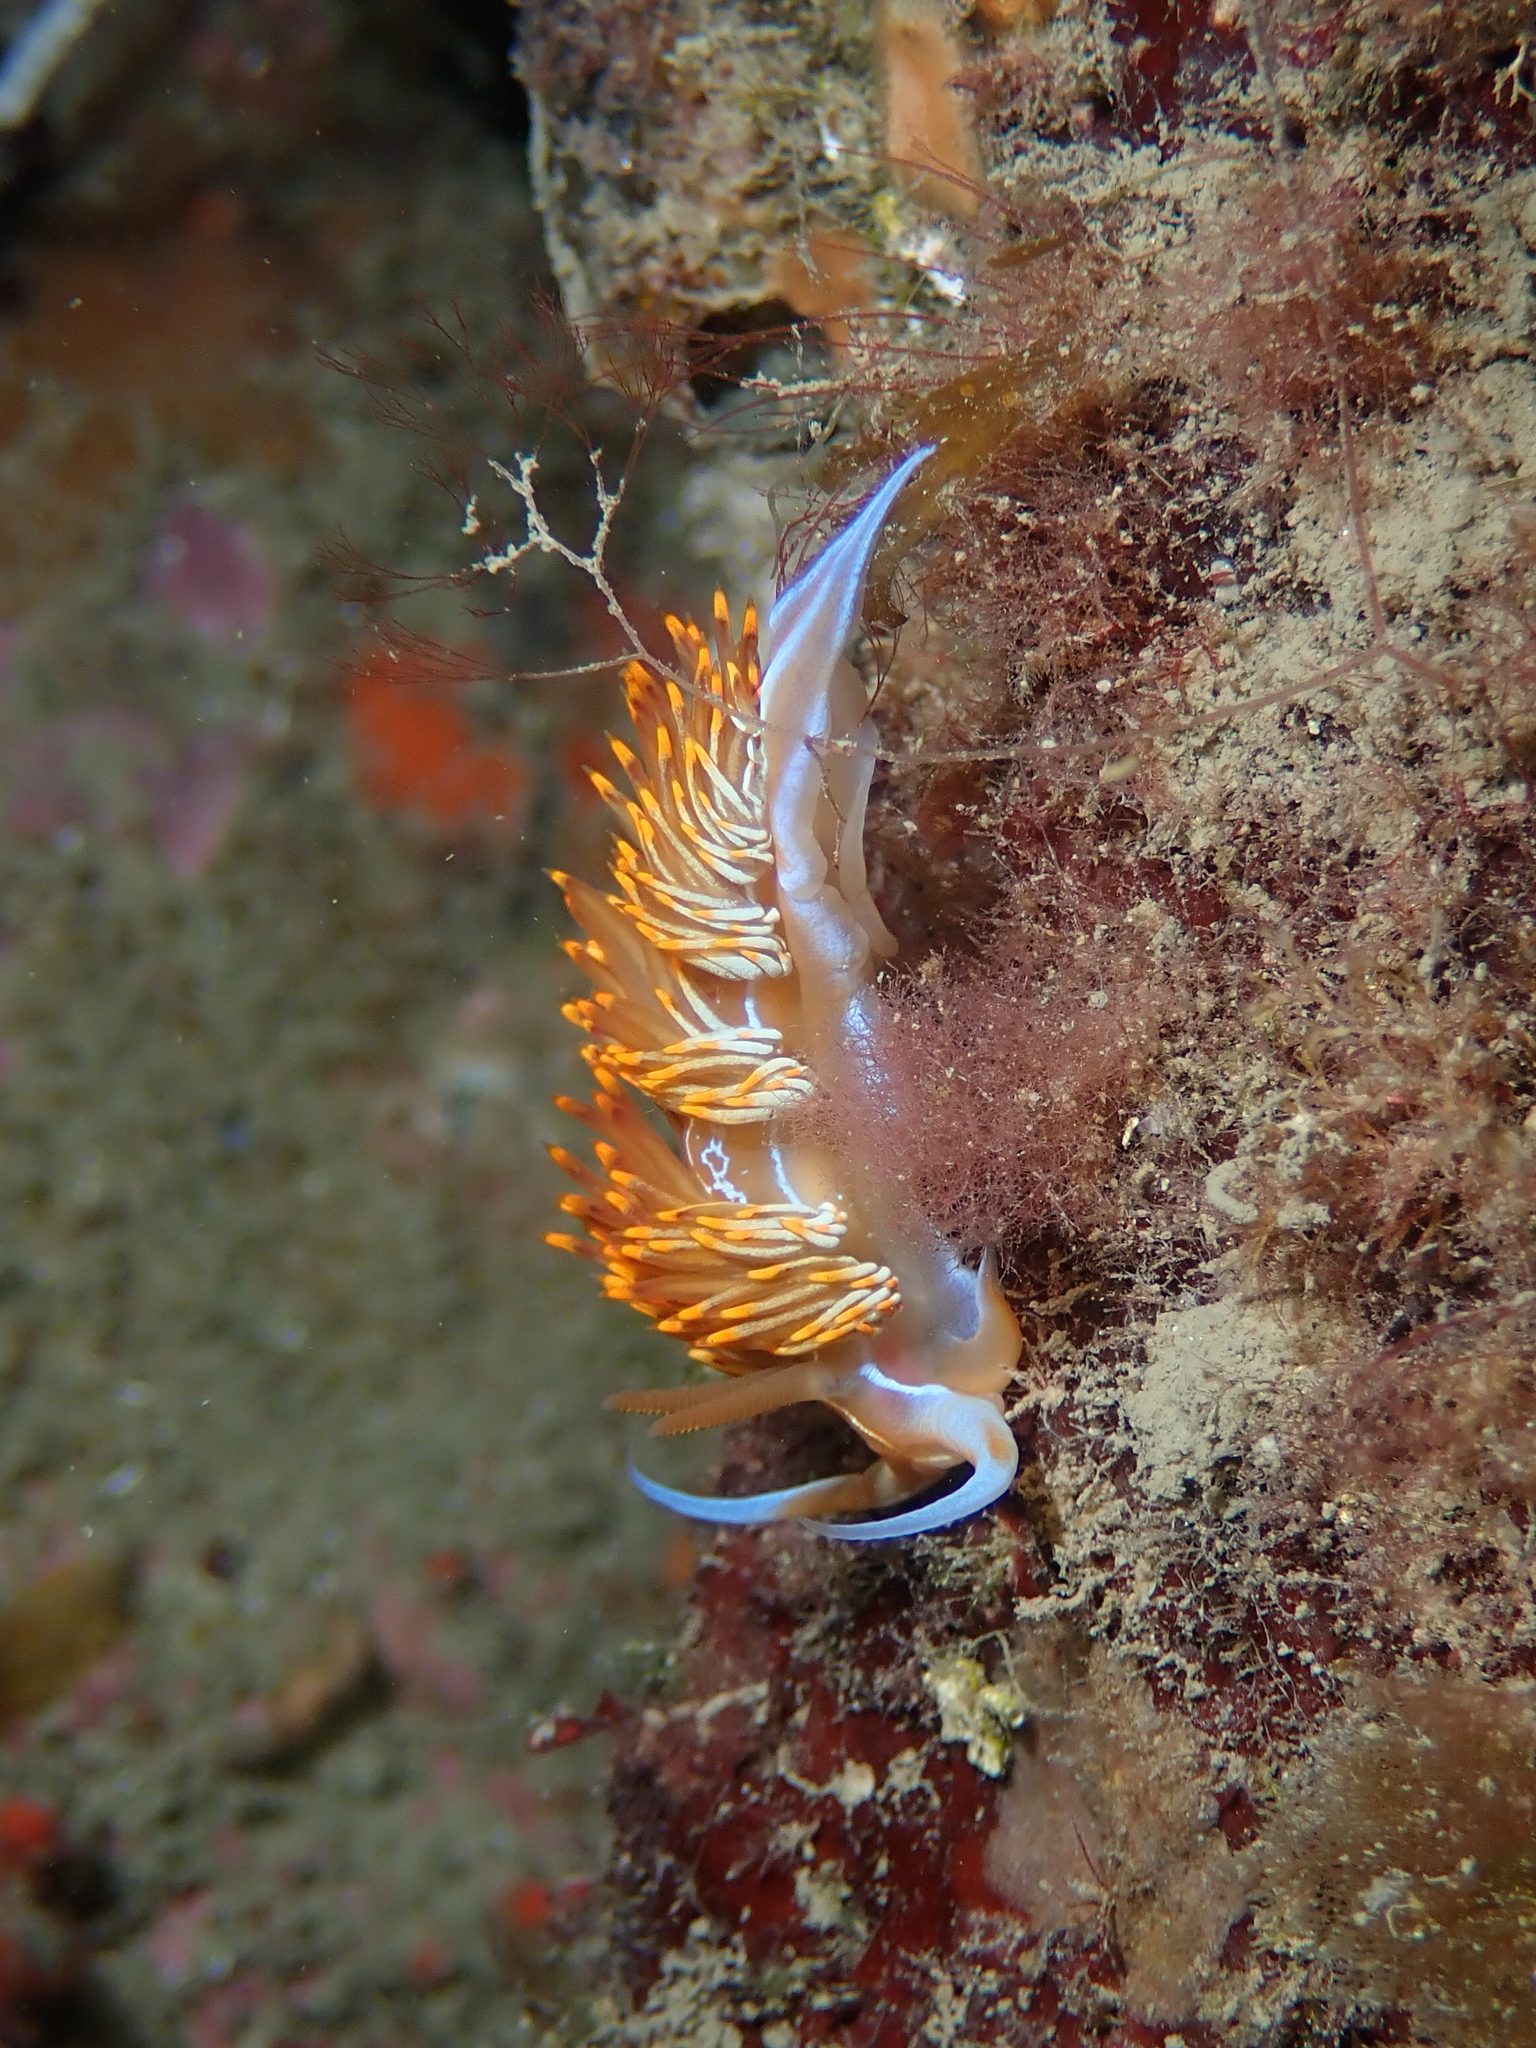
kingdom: Animalia
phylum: Mollusca
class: Gastropoda
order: Nudibranchia
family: Myrrhinidae
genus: Nemesignis
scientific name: Nemesignis banyulensis
